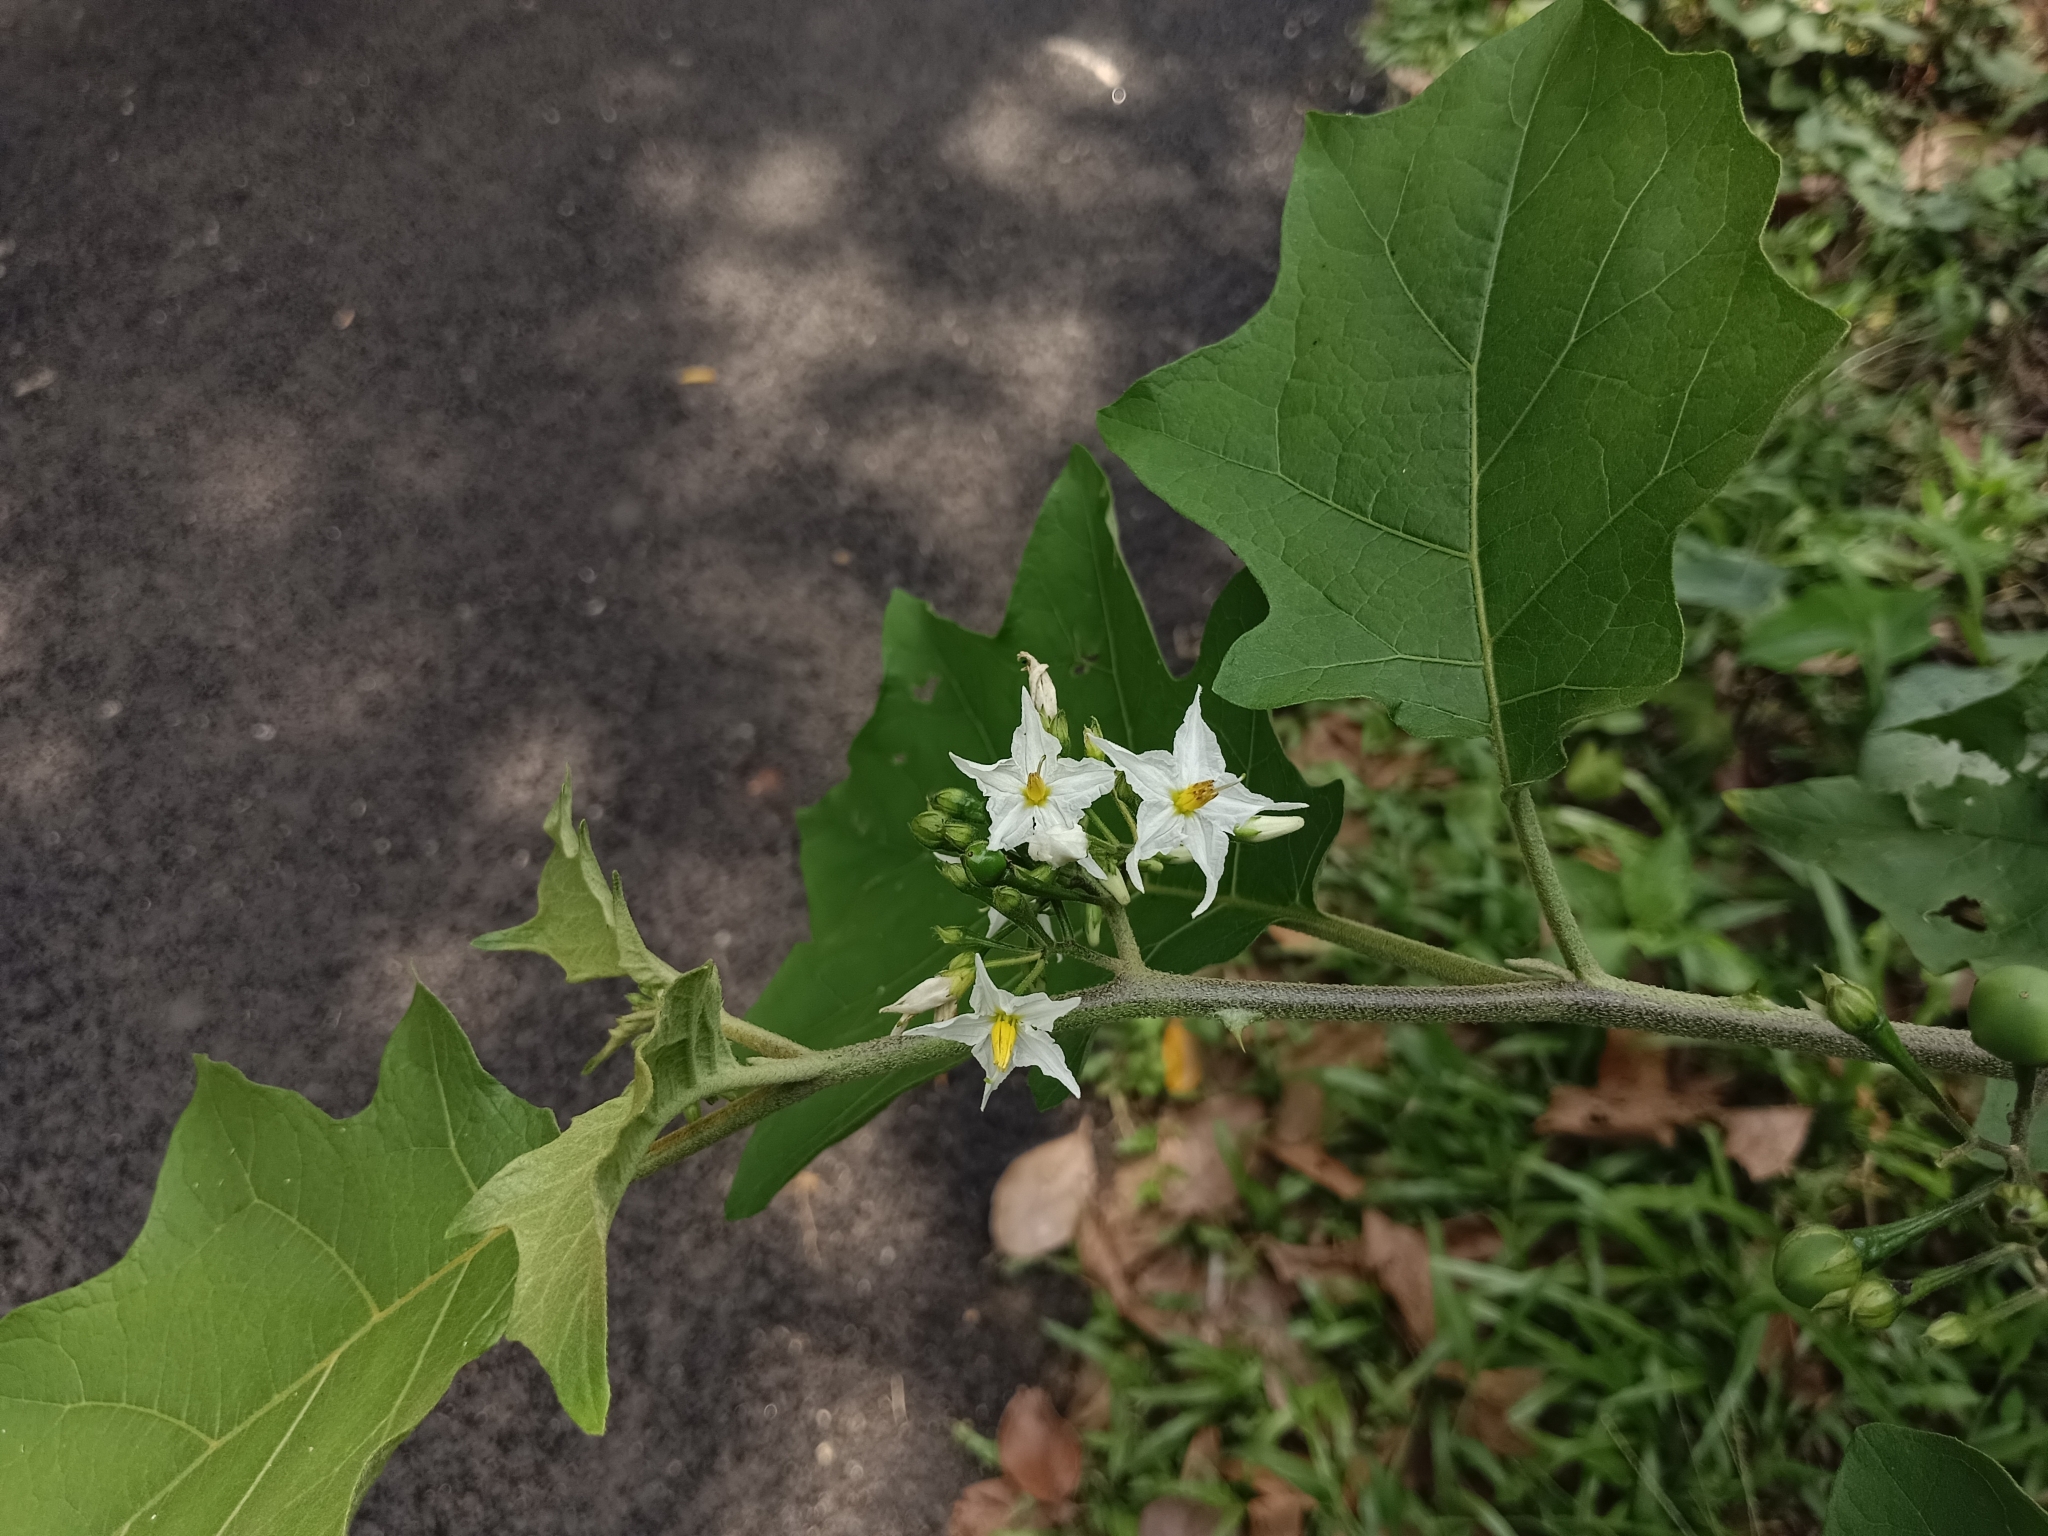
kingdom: Plantae
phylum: Tracheophyta
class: Magnoliopsida
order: Solanales
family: Solanaceae
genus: Solanum
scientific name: Solanum torvum
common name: Turkey berry
